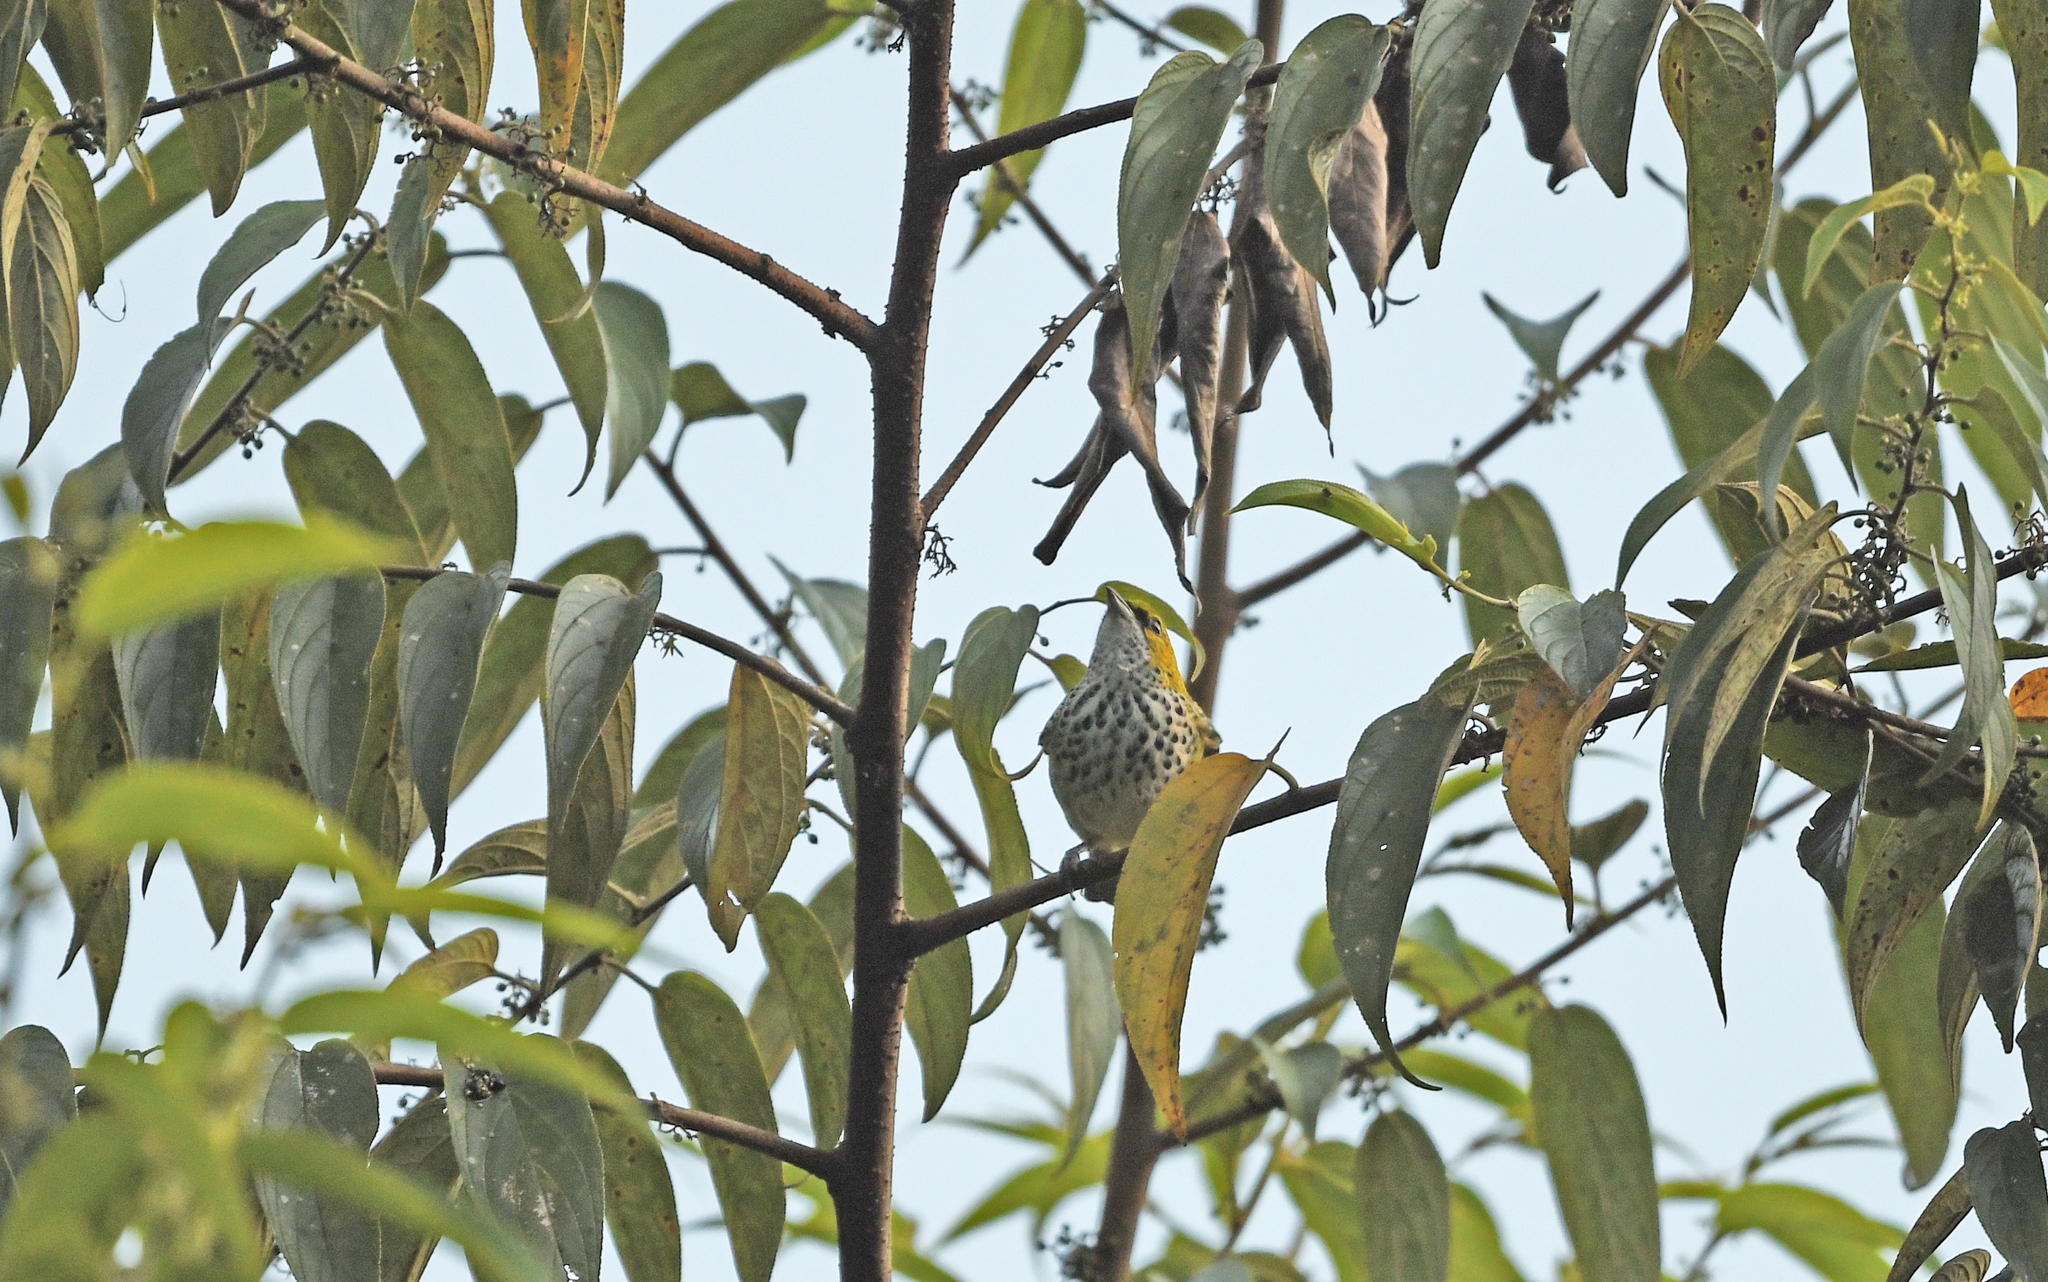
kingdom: Animalia
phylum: Chordata
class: Aves
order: Passeriformes
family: Thraupidae
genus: Ixothraupis
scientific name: Ixothraupis guttata
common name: Speckled tanager
